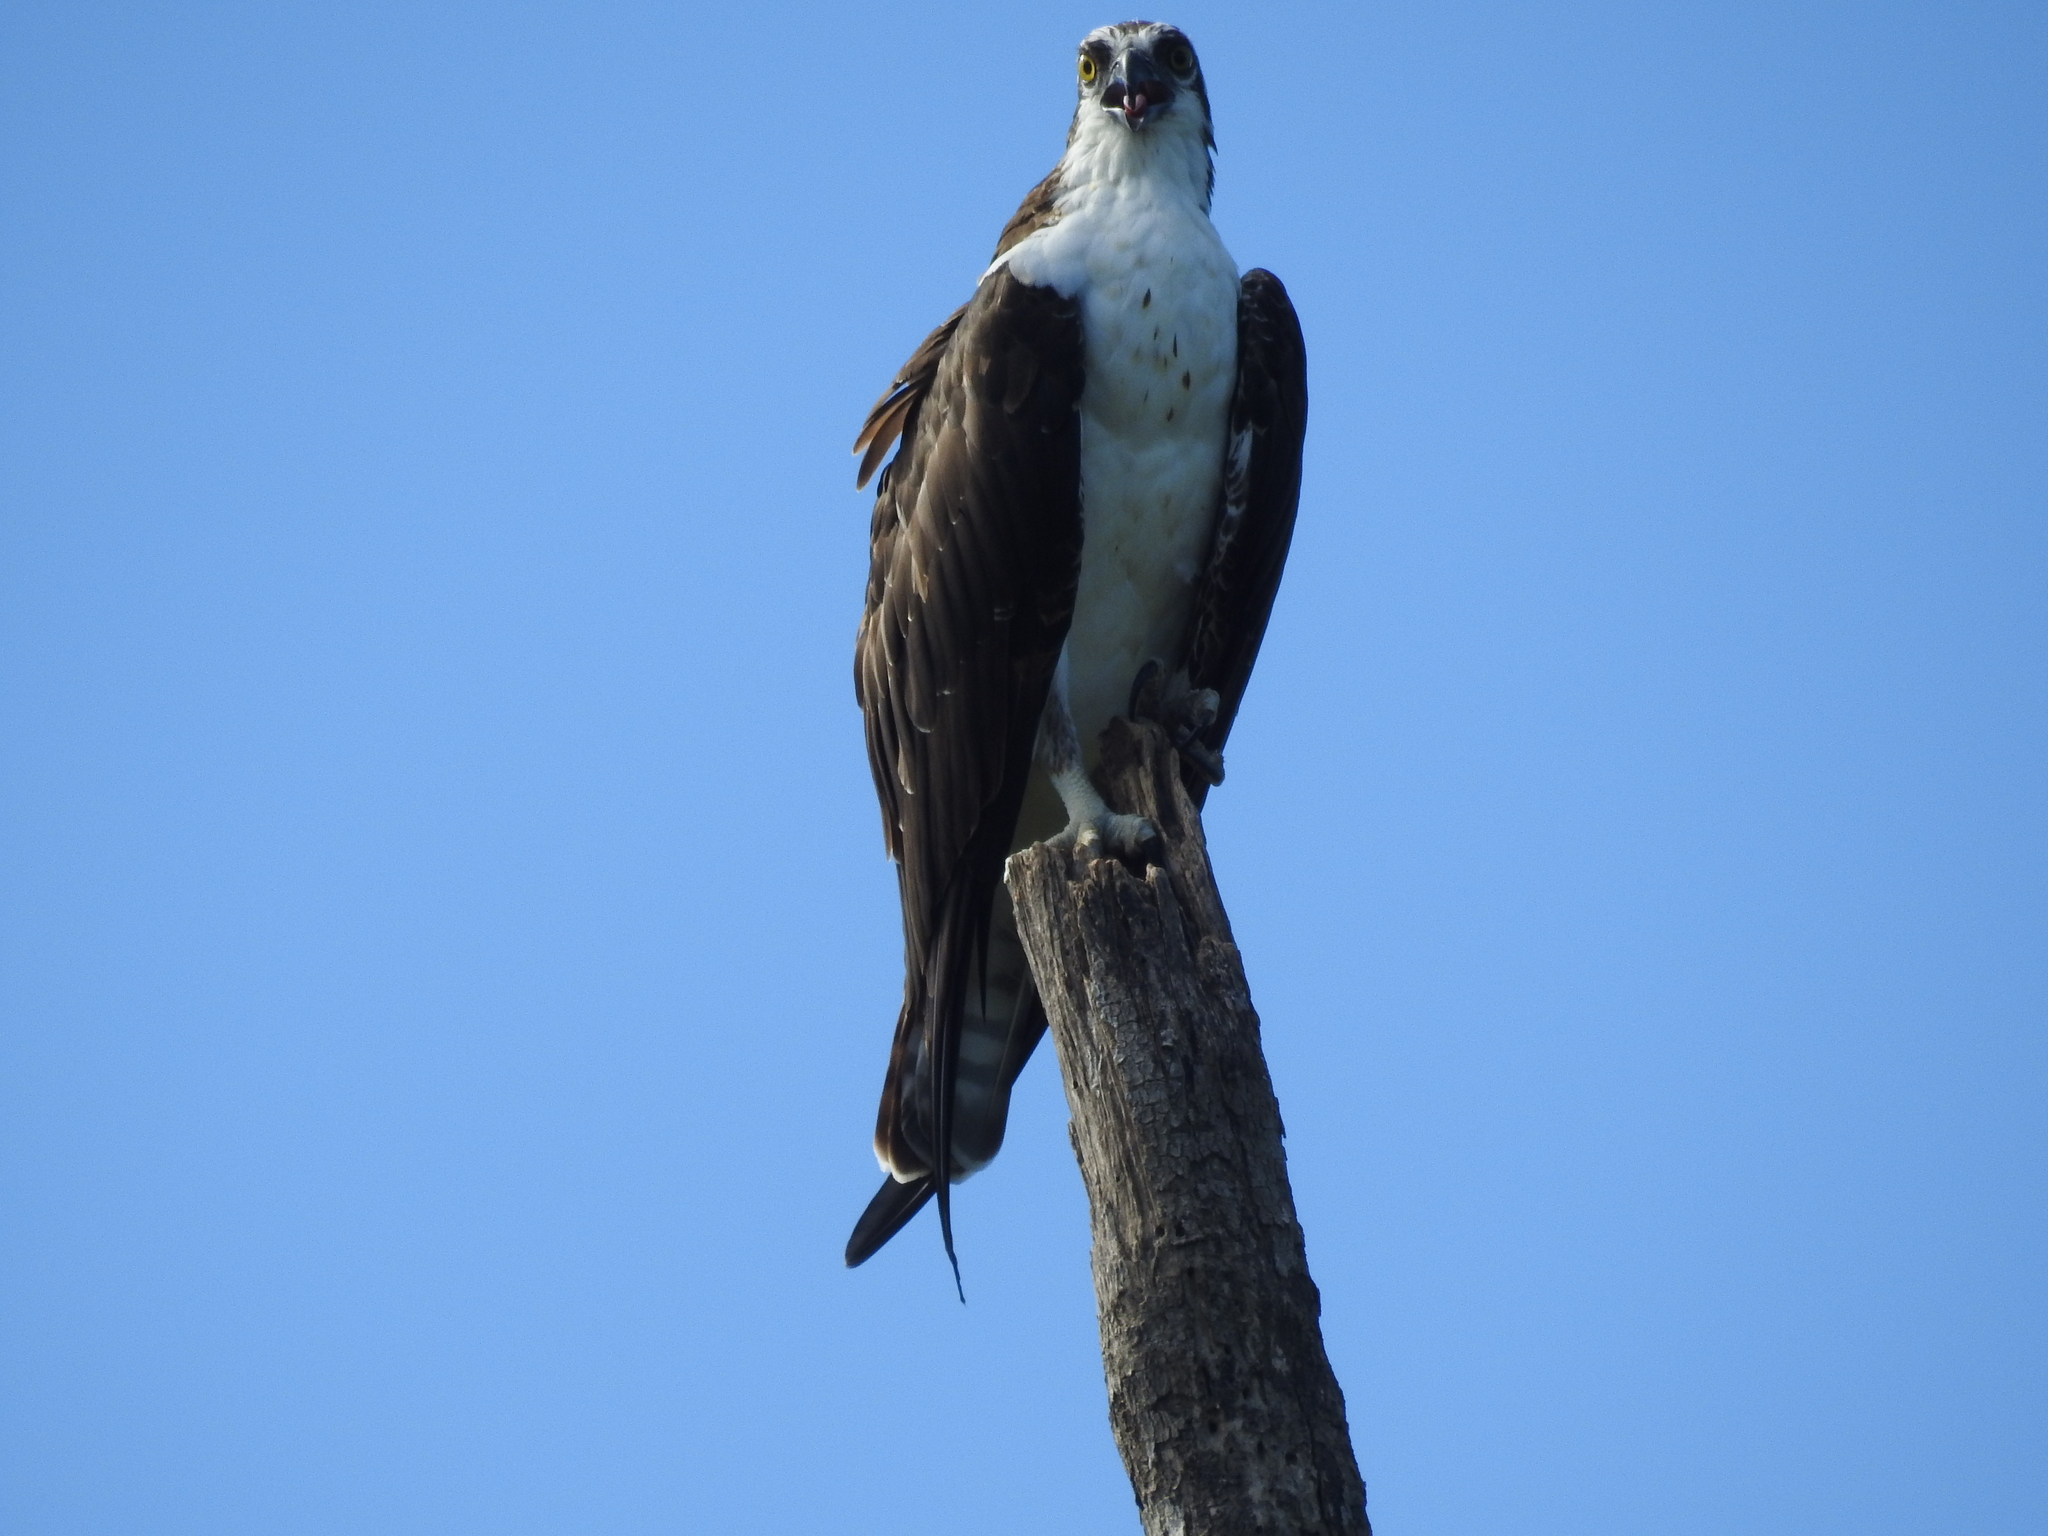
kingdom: Animalia
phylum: Chordata
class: Aves
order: Accipitriformes
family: Pandionidae
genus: Pandion
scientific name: Pandion haliaetus
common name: Osprey
